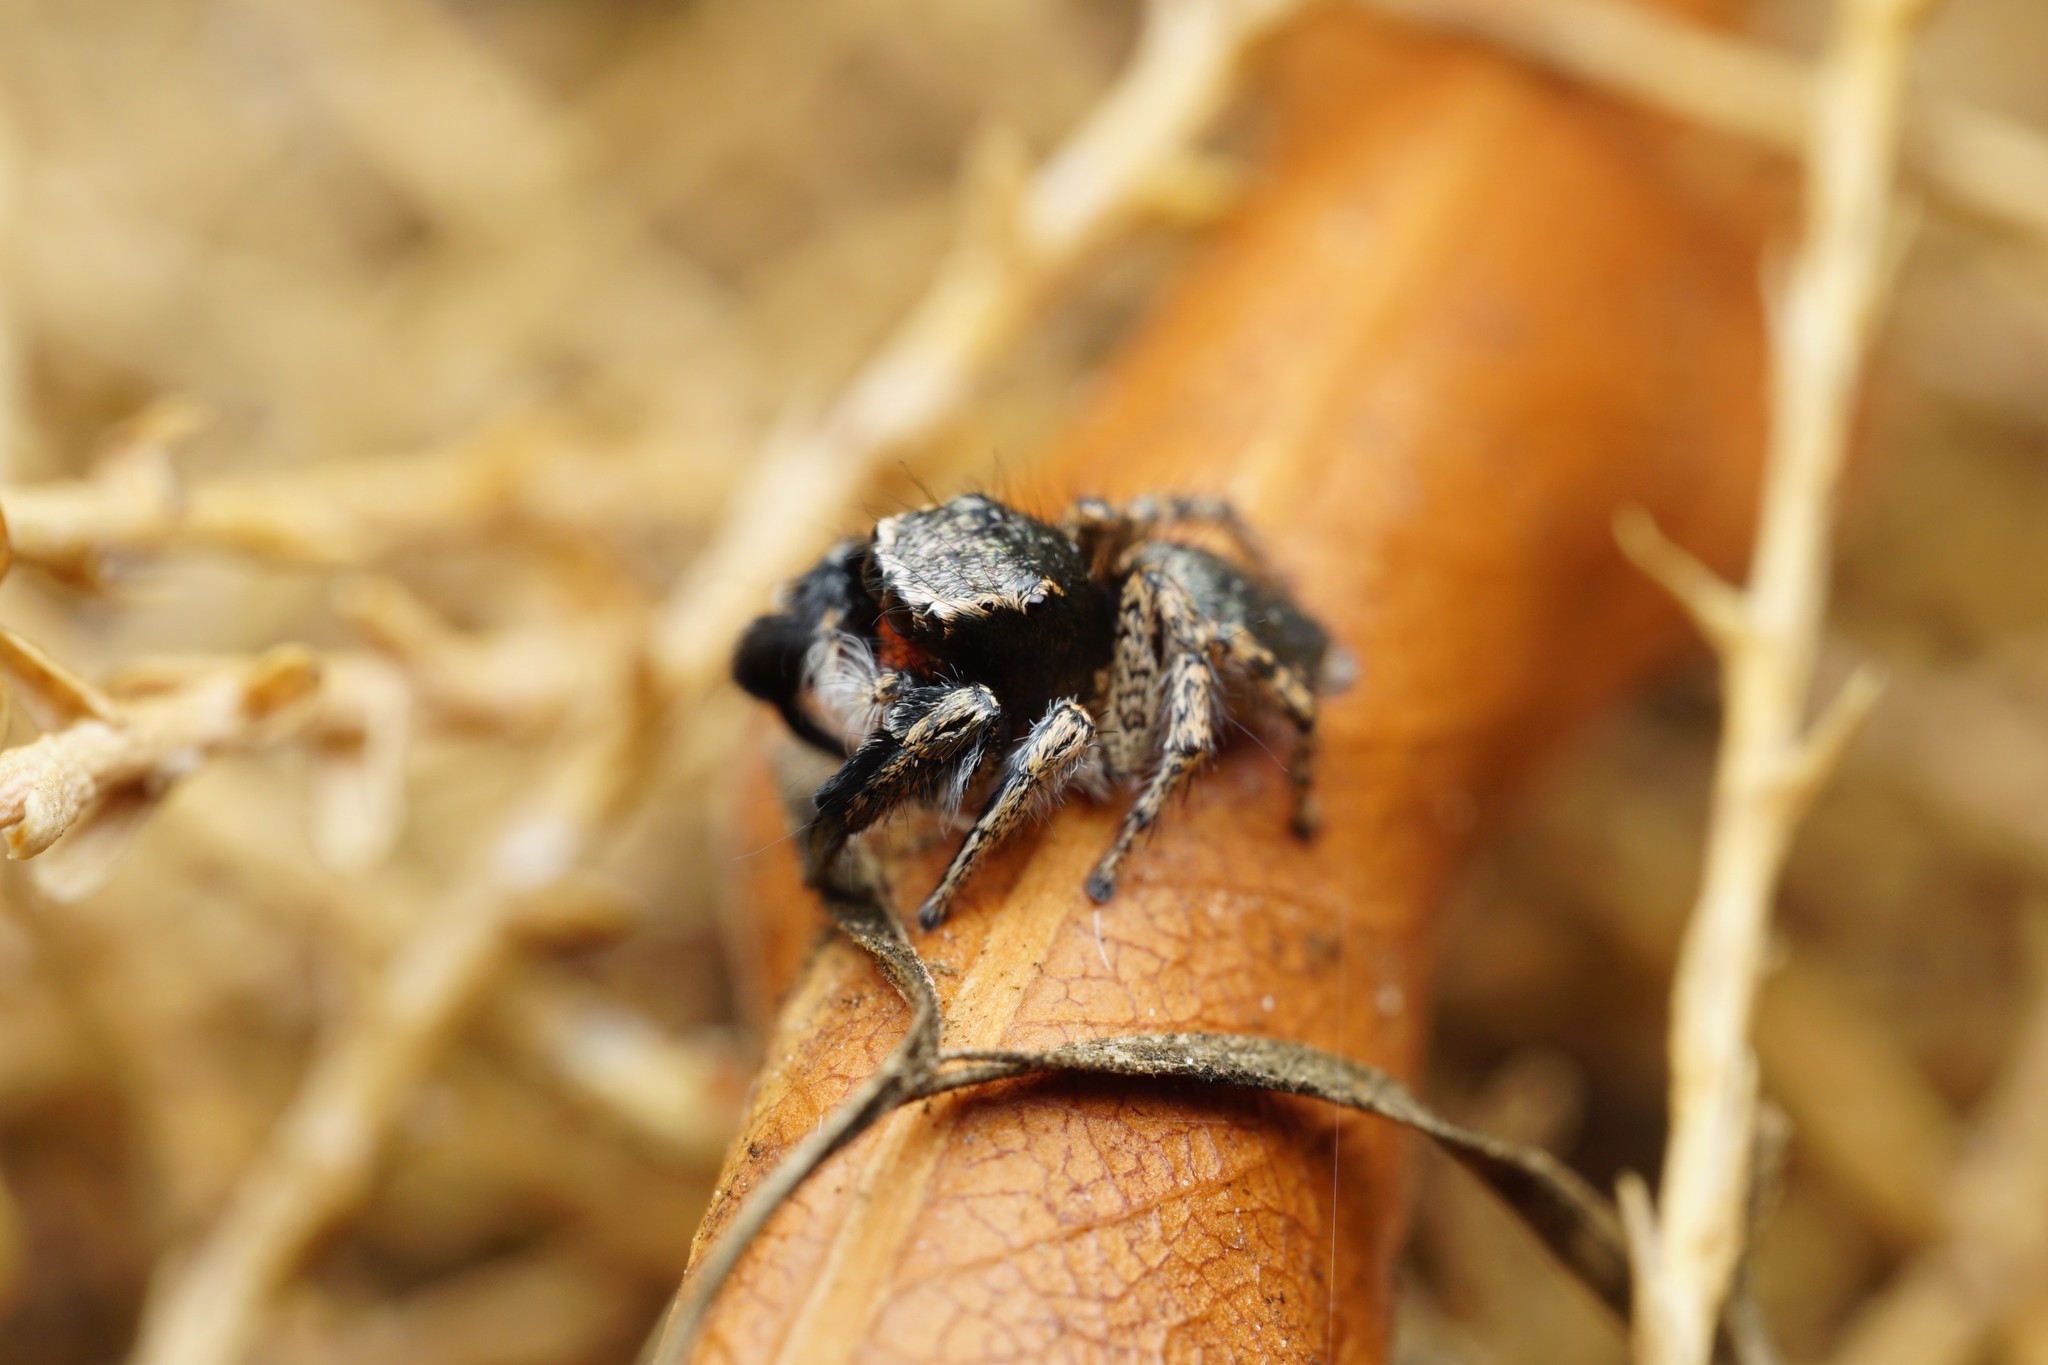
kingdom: Animalia
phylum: Arthropoda
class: Arachnida
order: Araneae
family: Salticidae
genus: Habronattus
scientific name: Habronattus hirsutus
